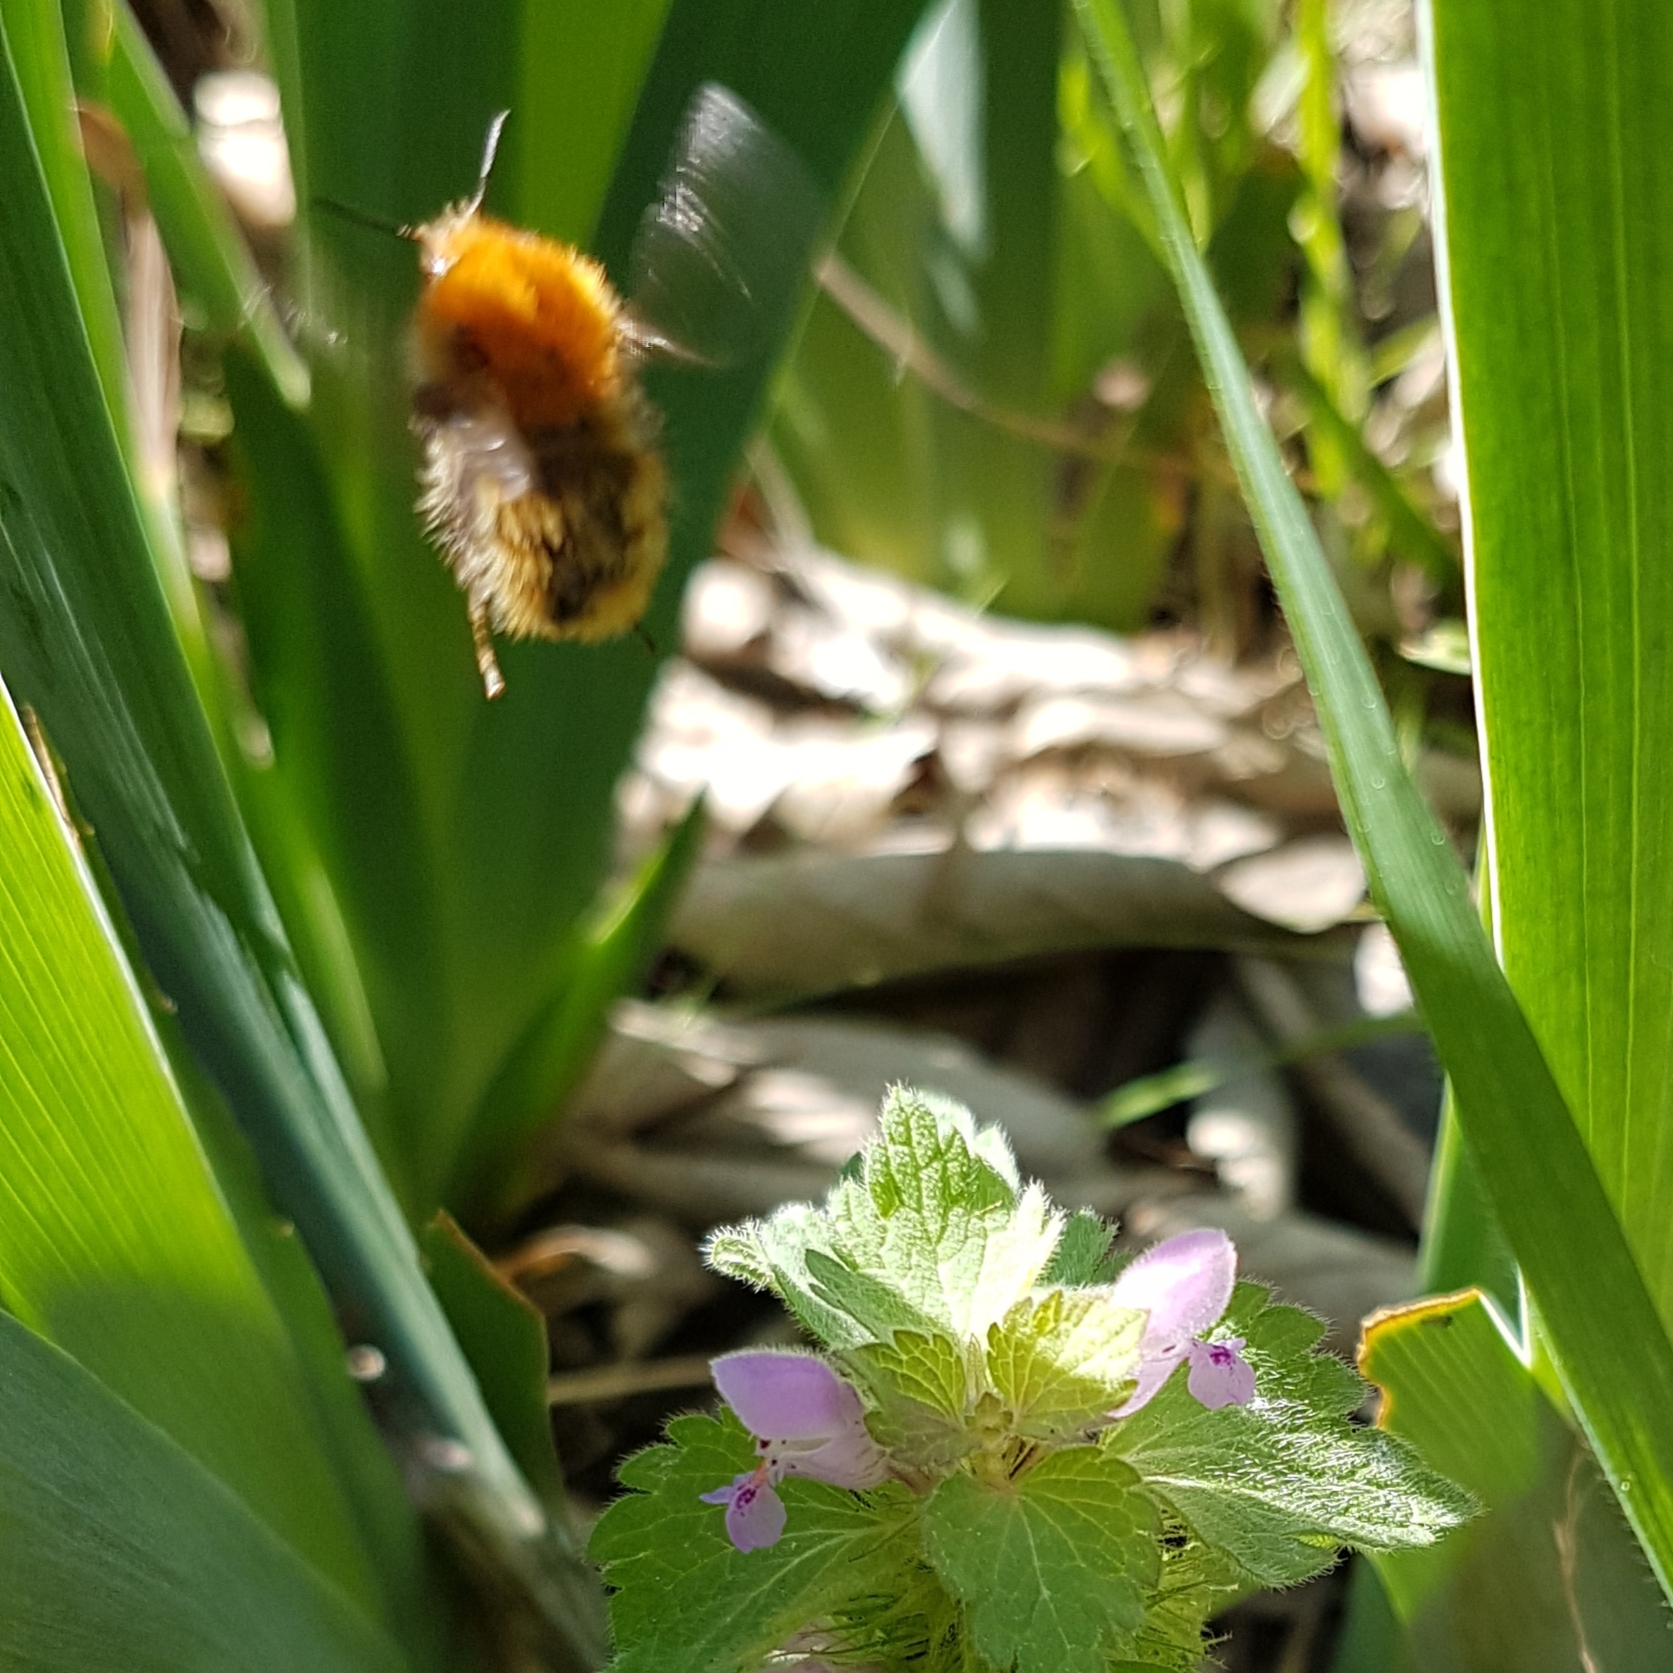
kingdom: Animalia
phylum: Arthropoda
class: Insecta
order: Hymenoptera
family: Apidae
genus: Bombus
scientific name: Bombus pascuorum
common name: Common carder bee
